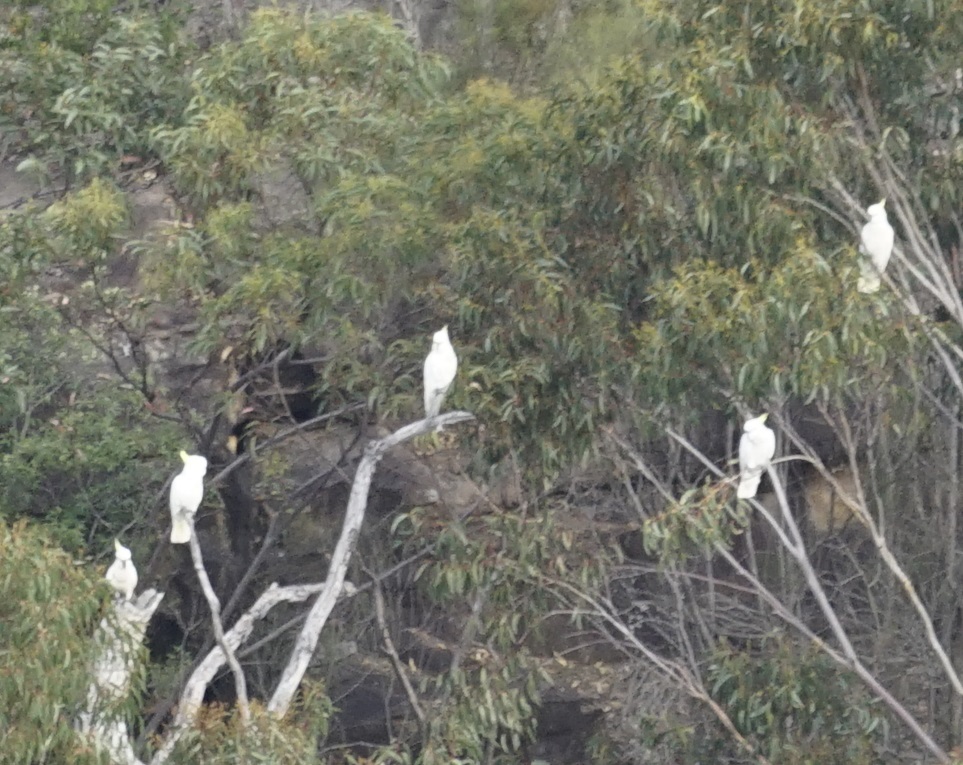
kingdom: Animalia
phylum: Chordata
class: Aves
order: Psittaciformes
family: Psittacidae
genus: Cacatua
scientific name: Cacatua galerita
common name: Sulphur-crested cockatoo
